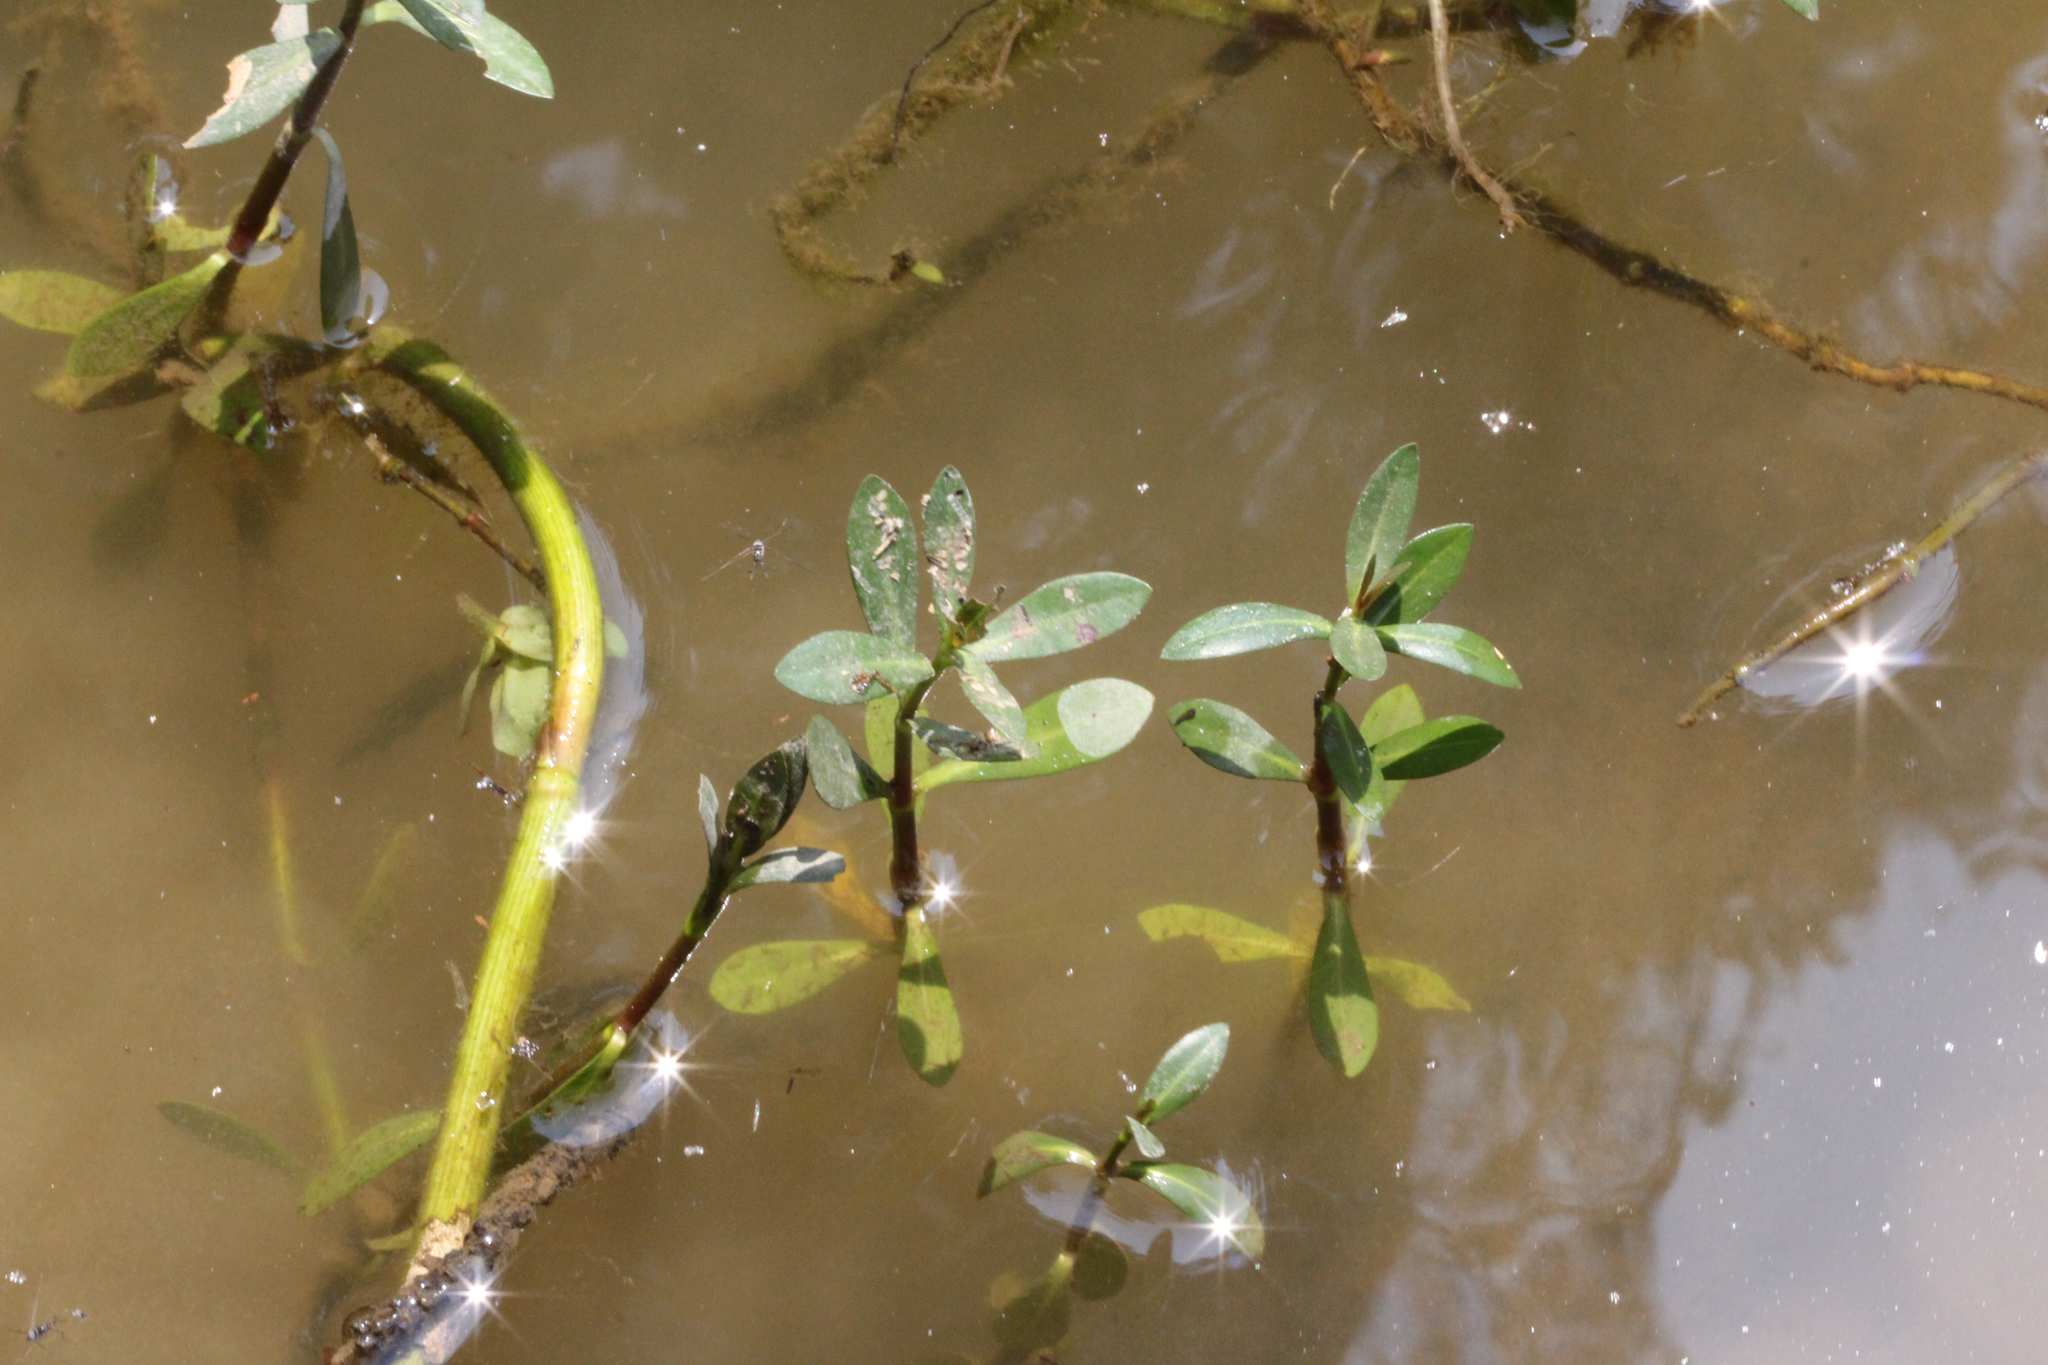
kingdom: Plantae
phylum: Tracheophyta
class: Magnoliopsida
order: Caryophyllales
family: Amaranthaceae
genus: Alternanthera
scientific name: Alternanthera philoxeroides
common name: Alligatorweed
